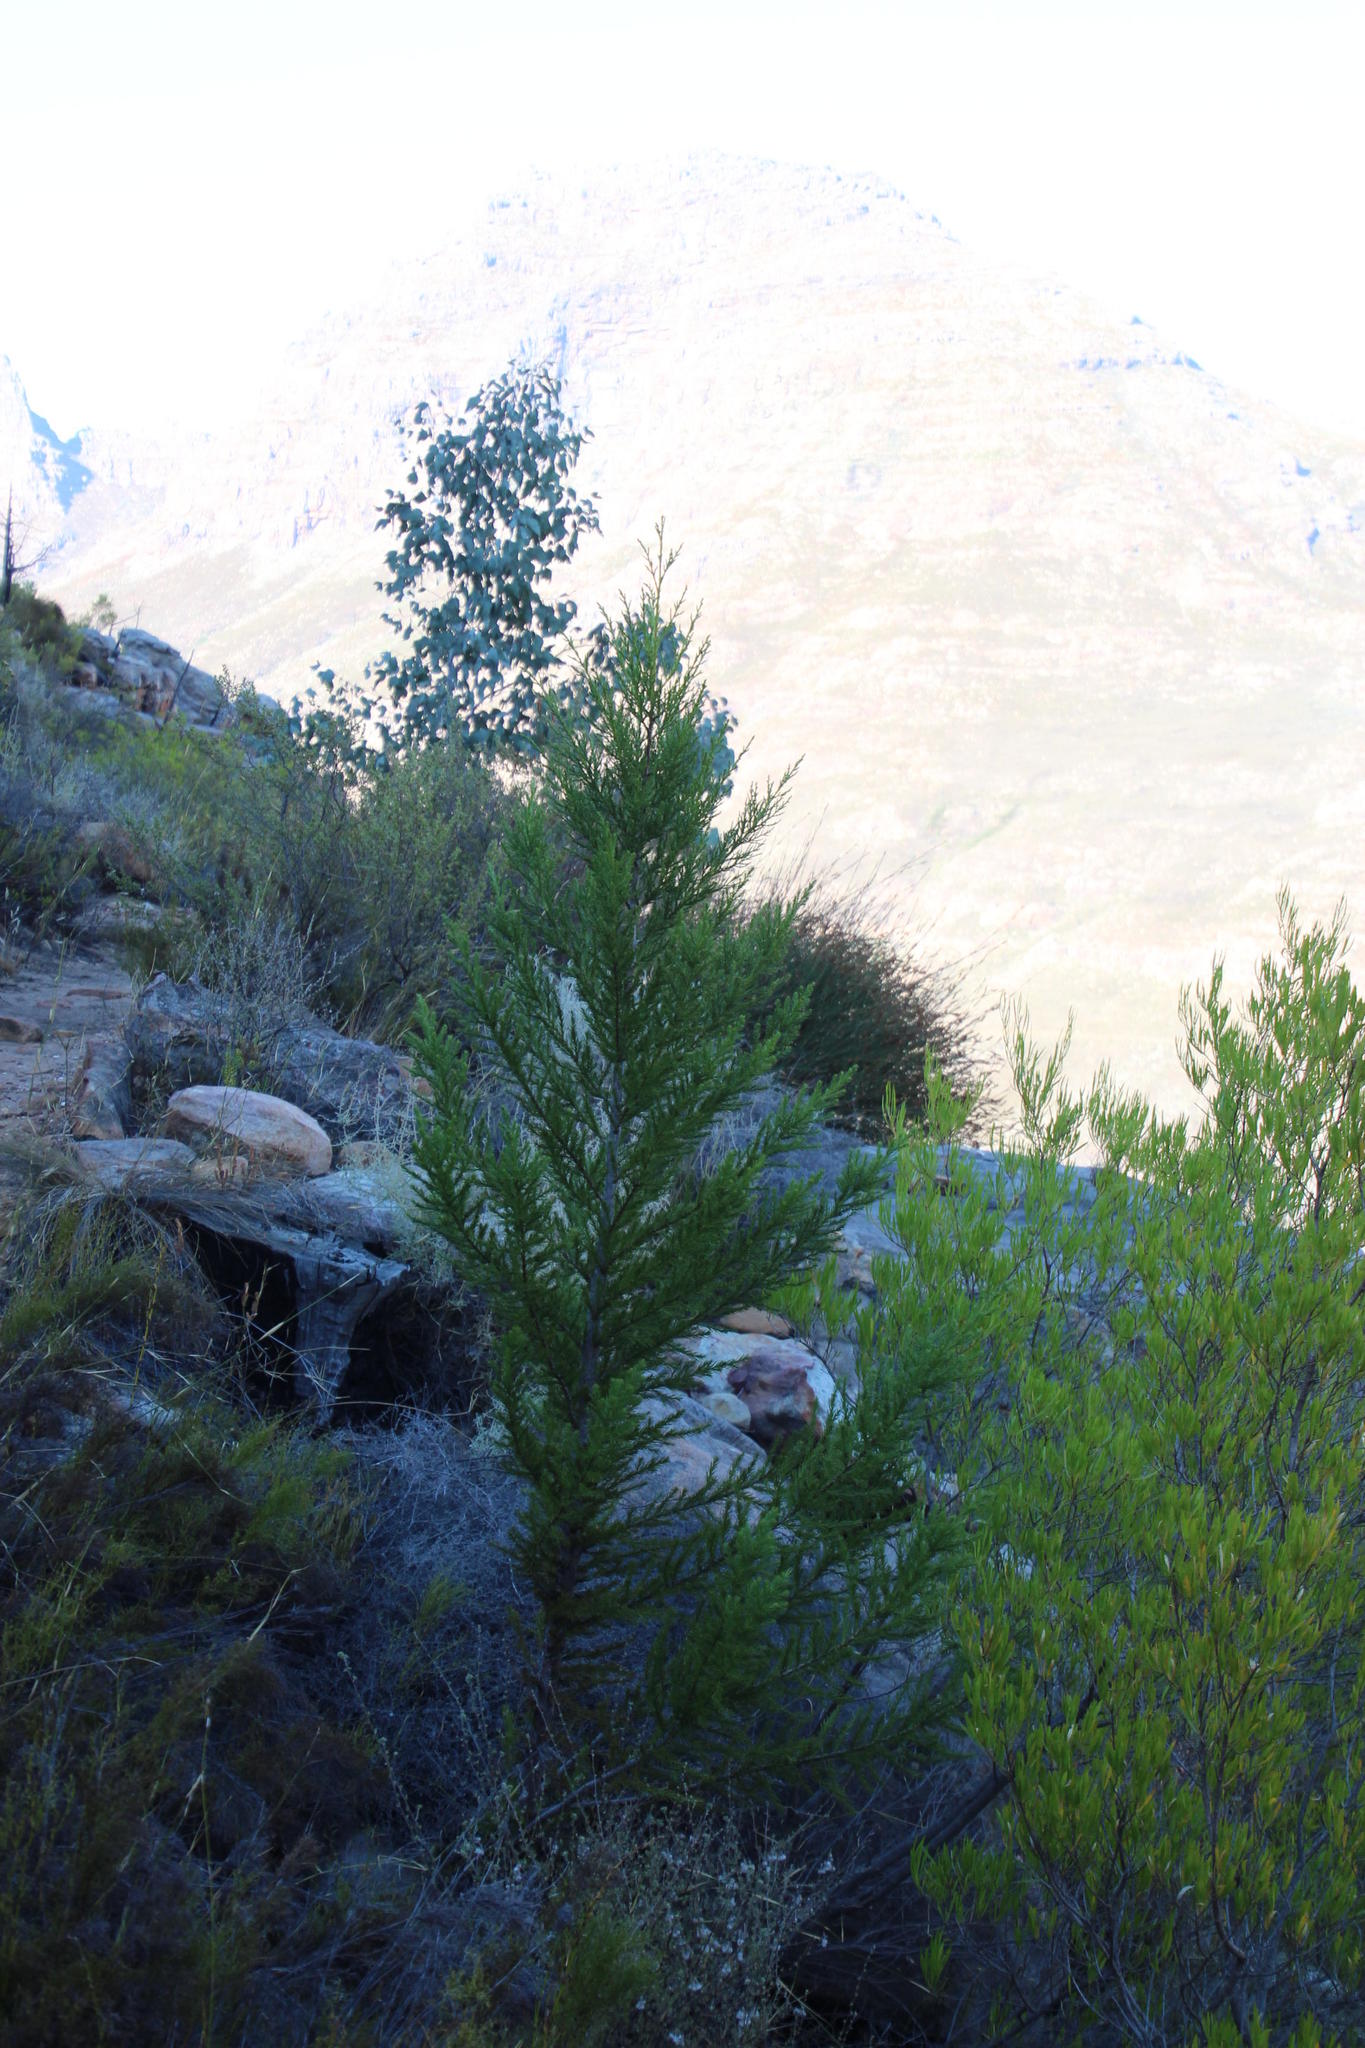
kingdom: Plantae
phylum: Tracheophyta
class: Pinopsida
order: Pinales
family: Cupressaceae
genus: Widdringtonia
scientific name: Widdringtonia nodiflora
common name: Cape cypress
